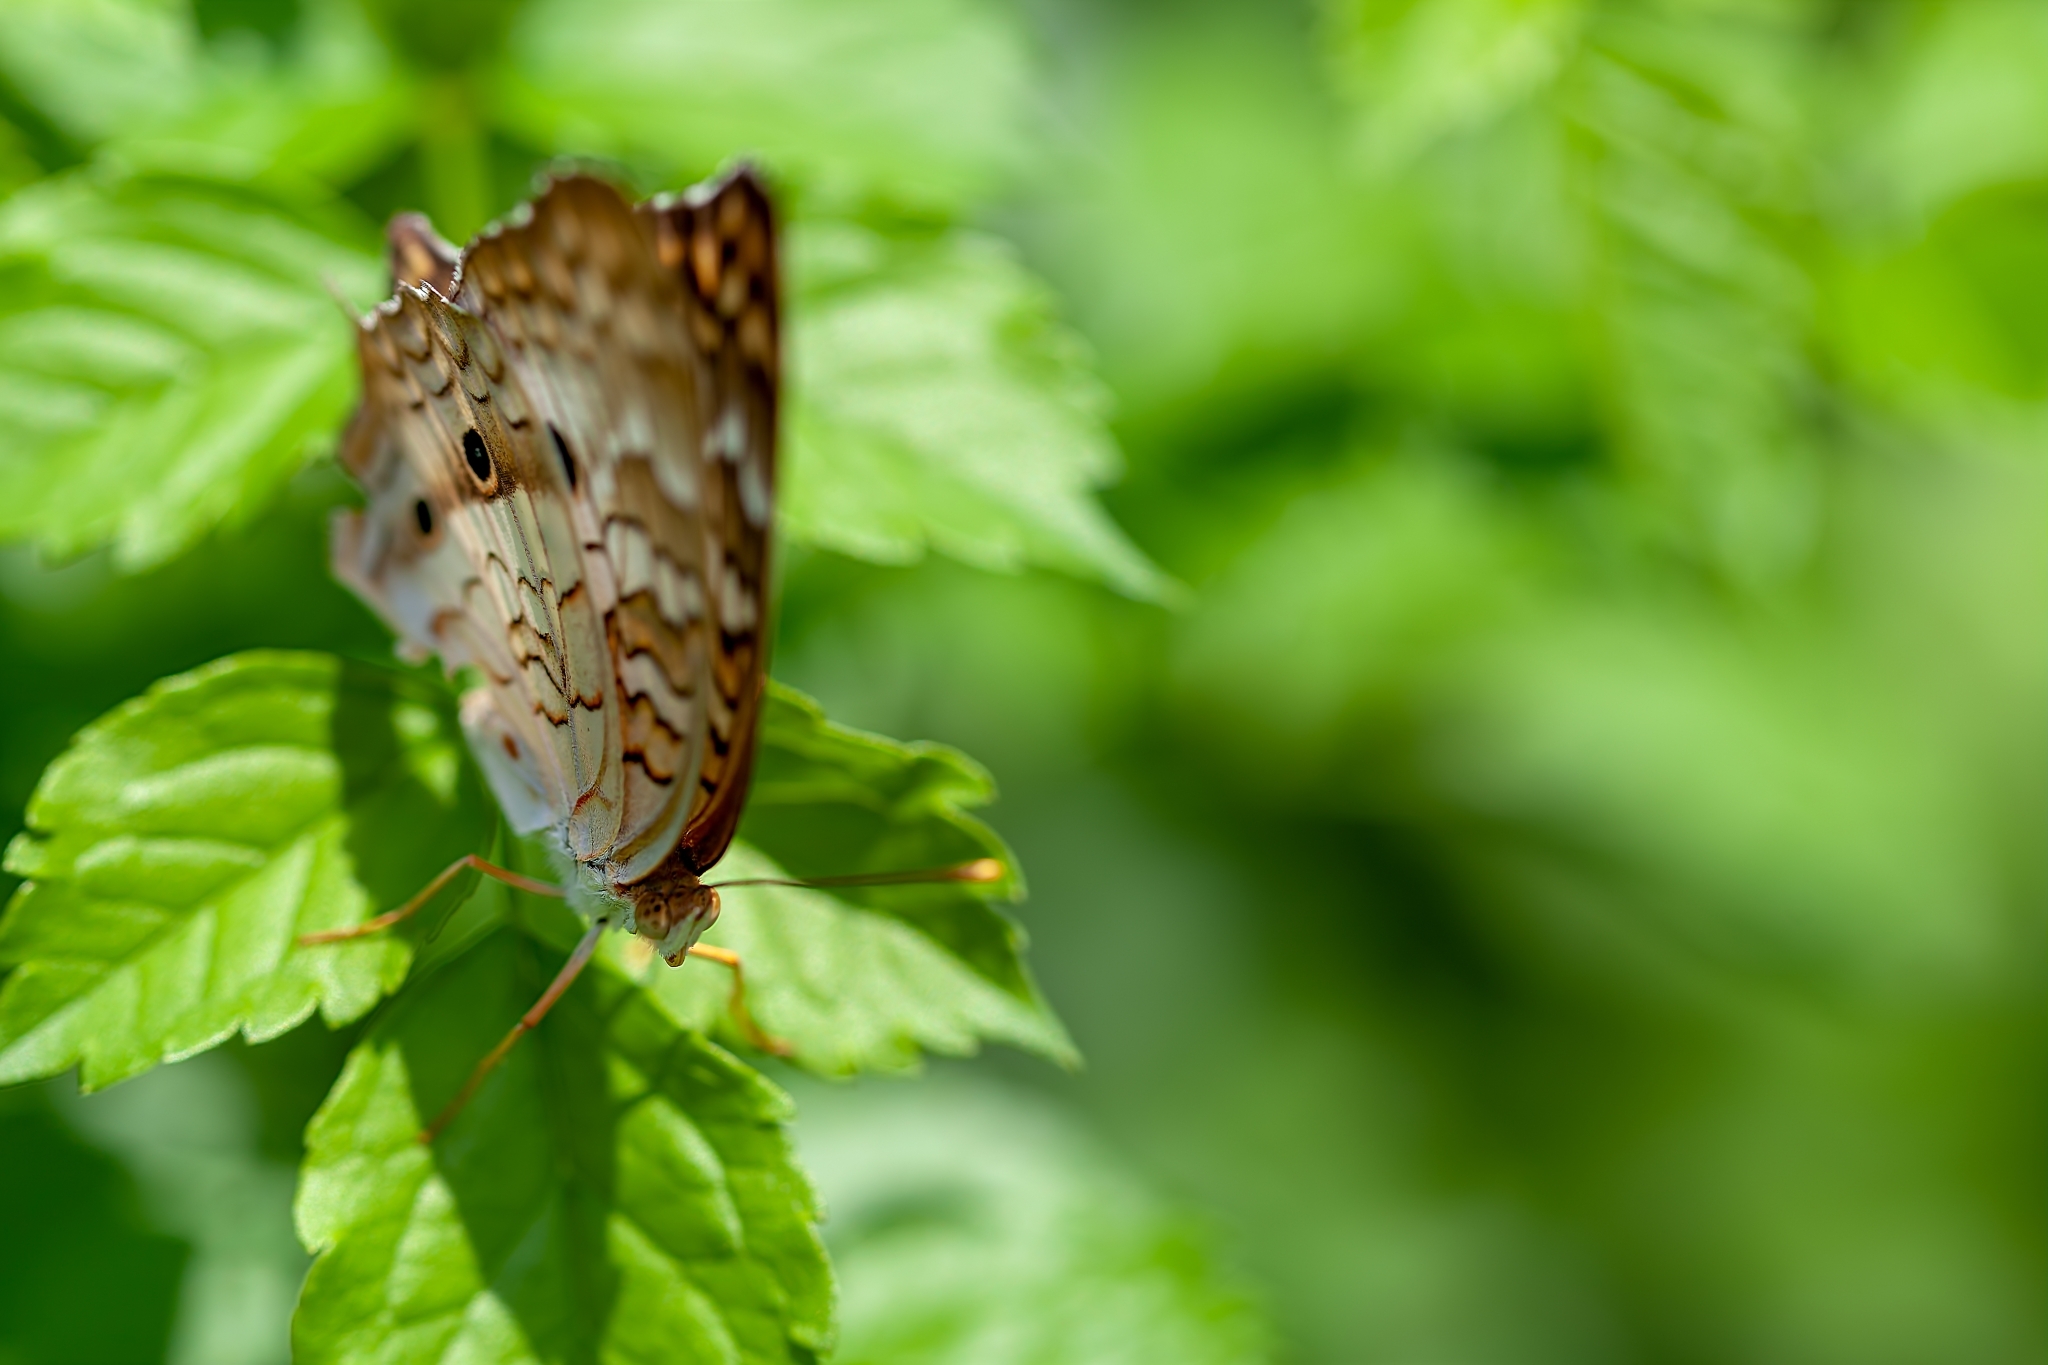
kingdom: Animalia
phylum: Arthropoda
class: Insecta
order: Lepidoptera
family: Nymphalidae
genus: Anartia
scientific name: Anartia jatrophae
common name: White peacock
